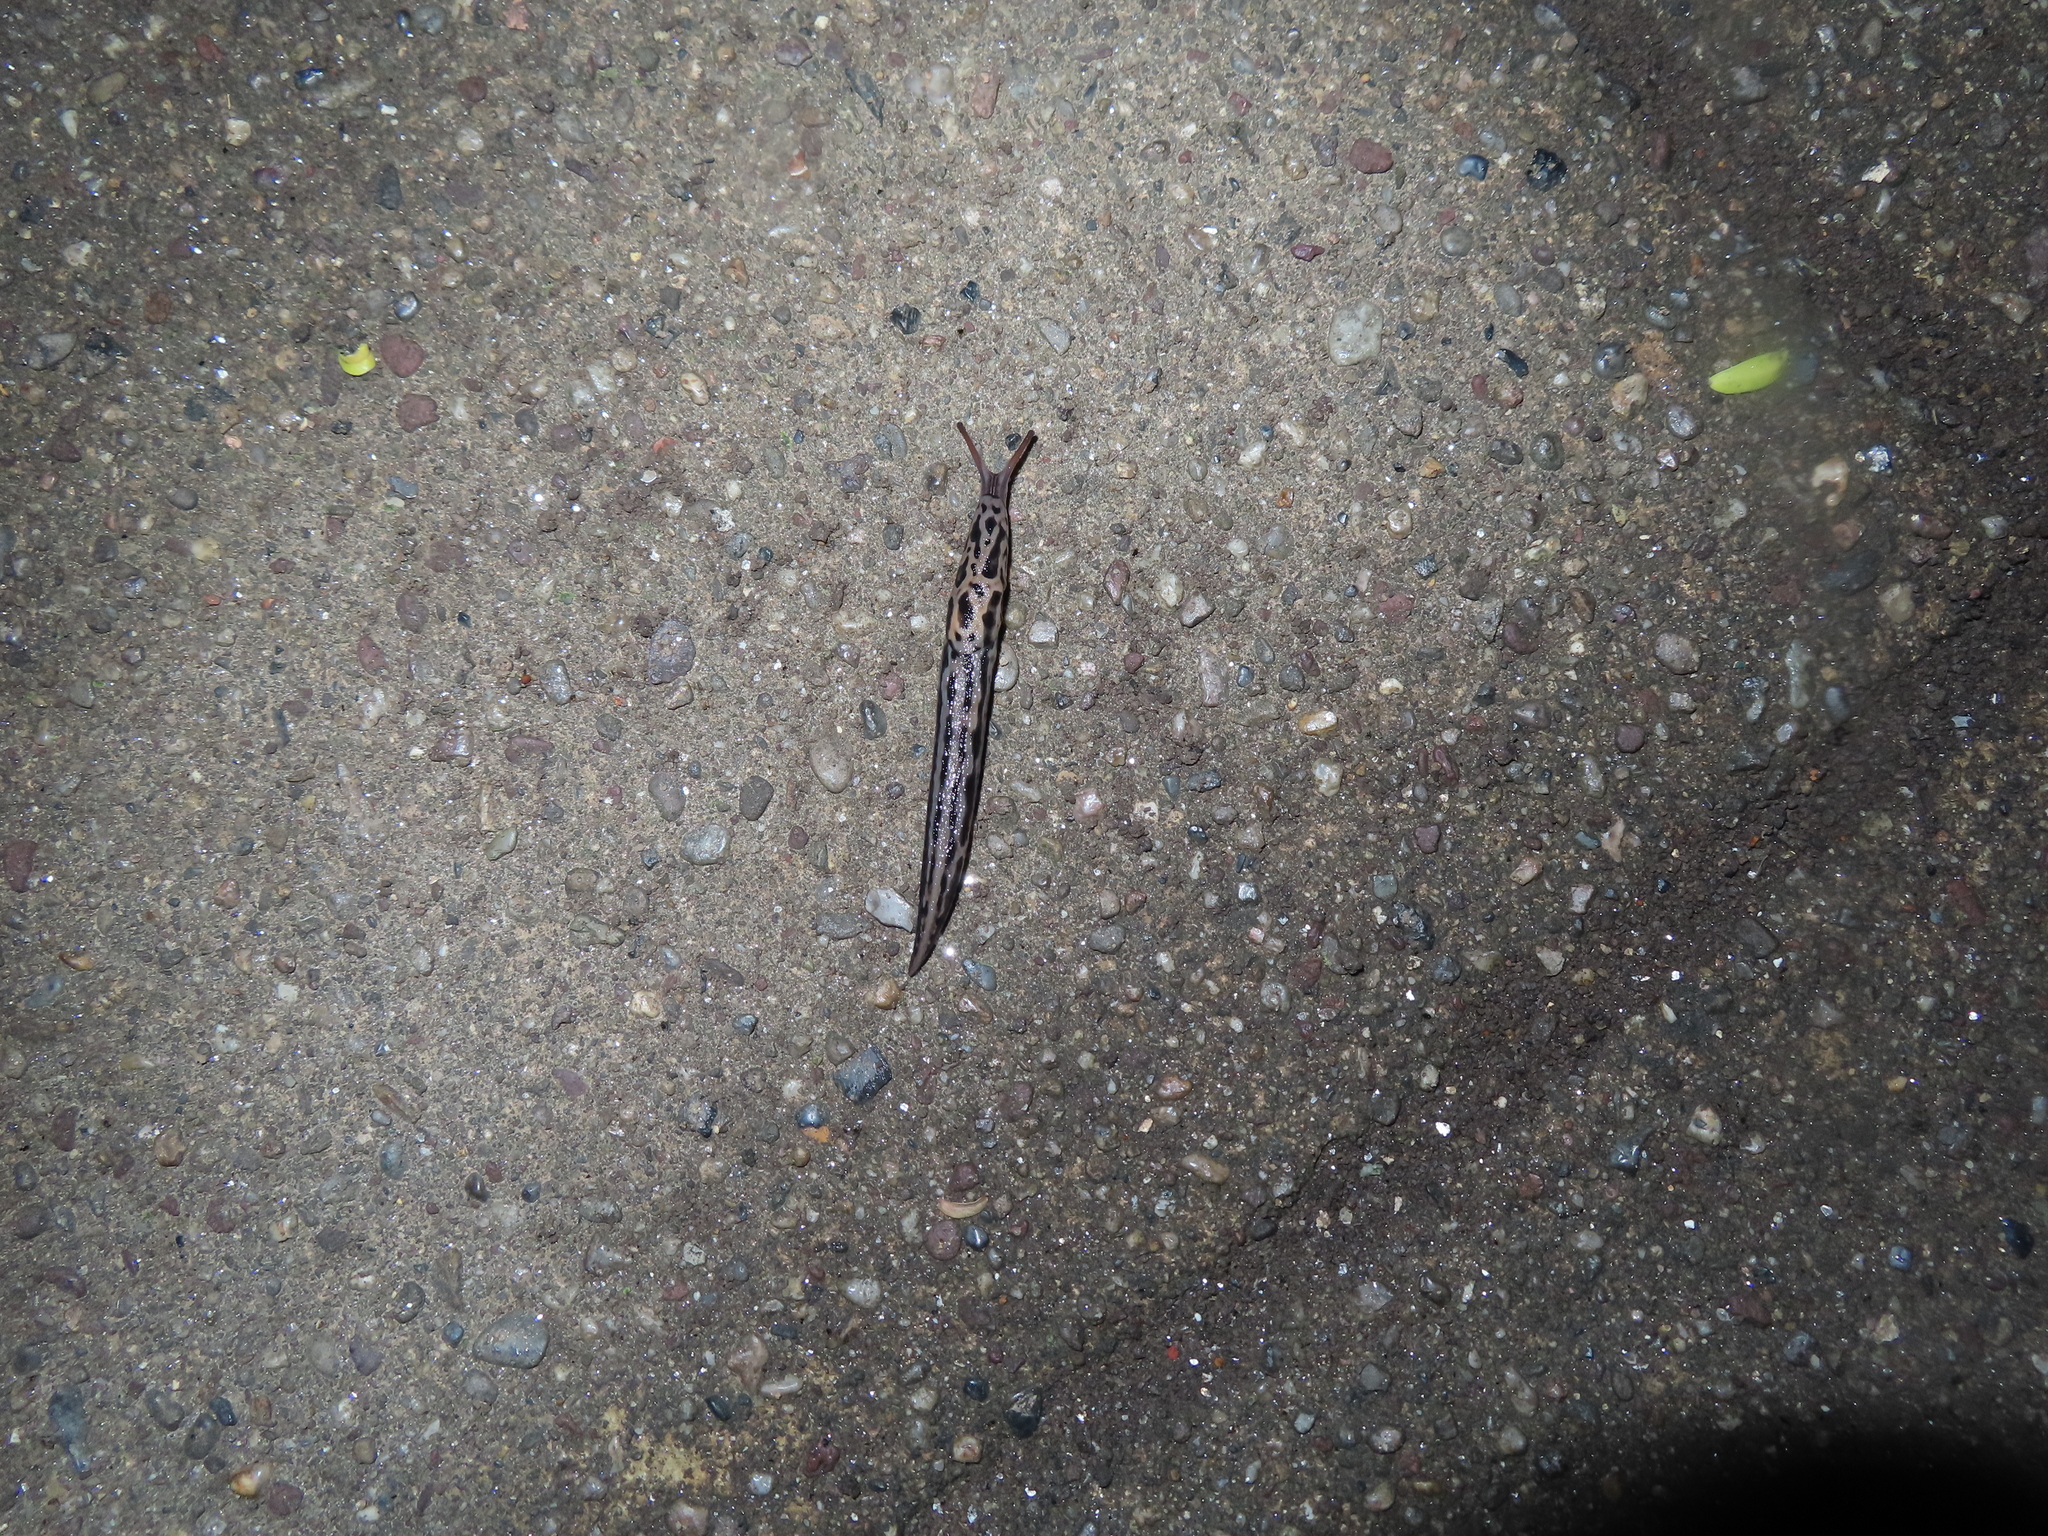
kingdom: Animalia
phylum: Mollusca
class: Gastropoda
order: Stylommatophora
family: Limacidae
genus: Limax
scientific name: Limax maximus
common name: Great grey slug
